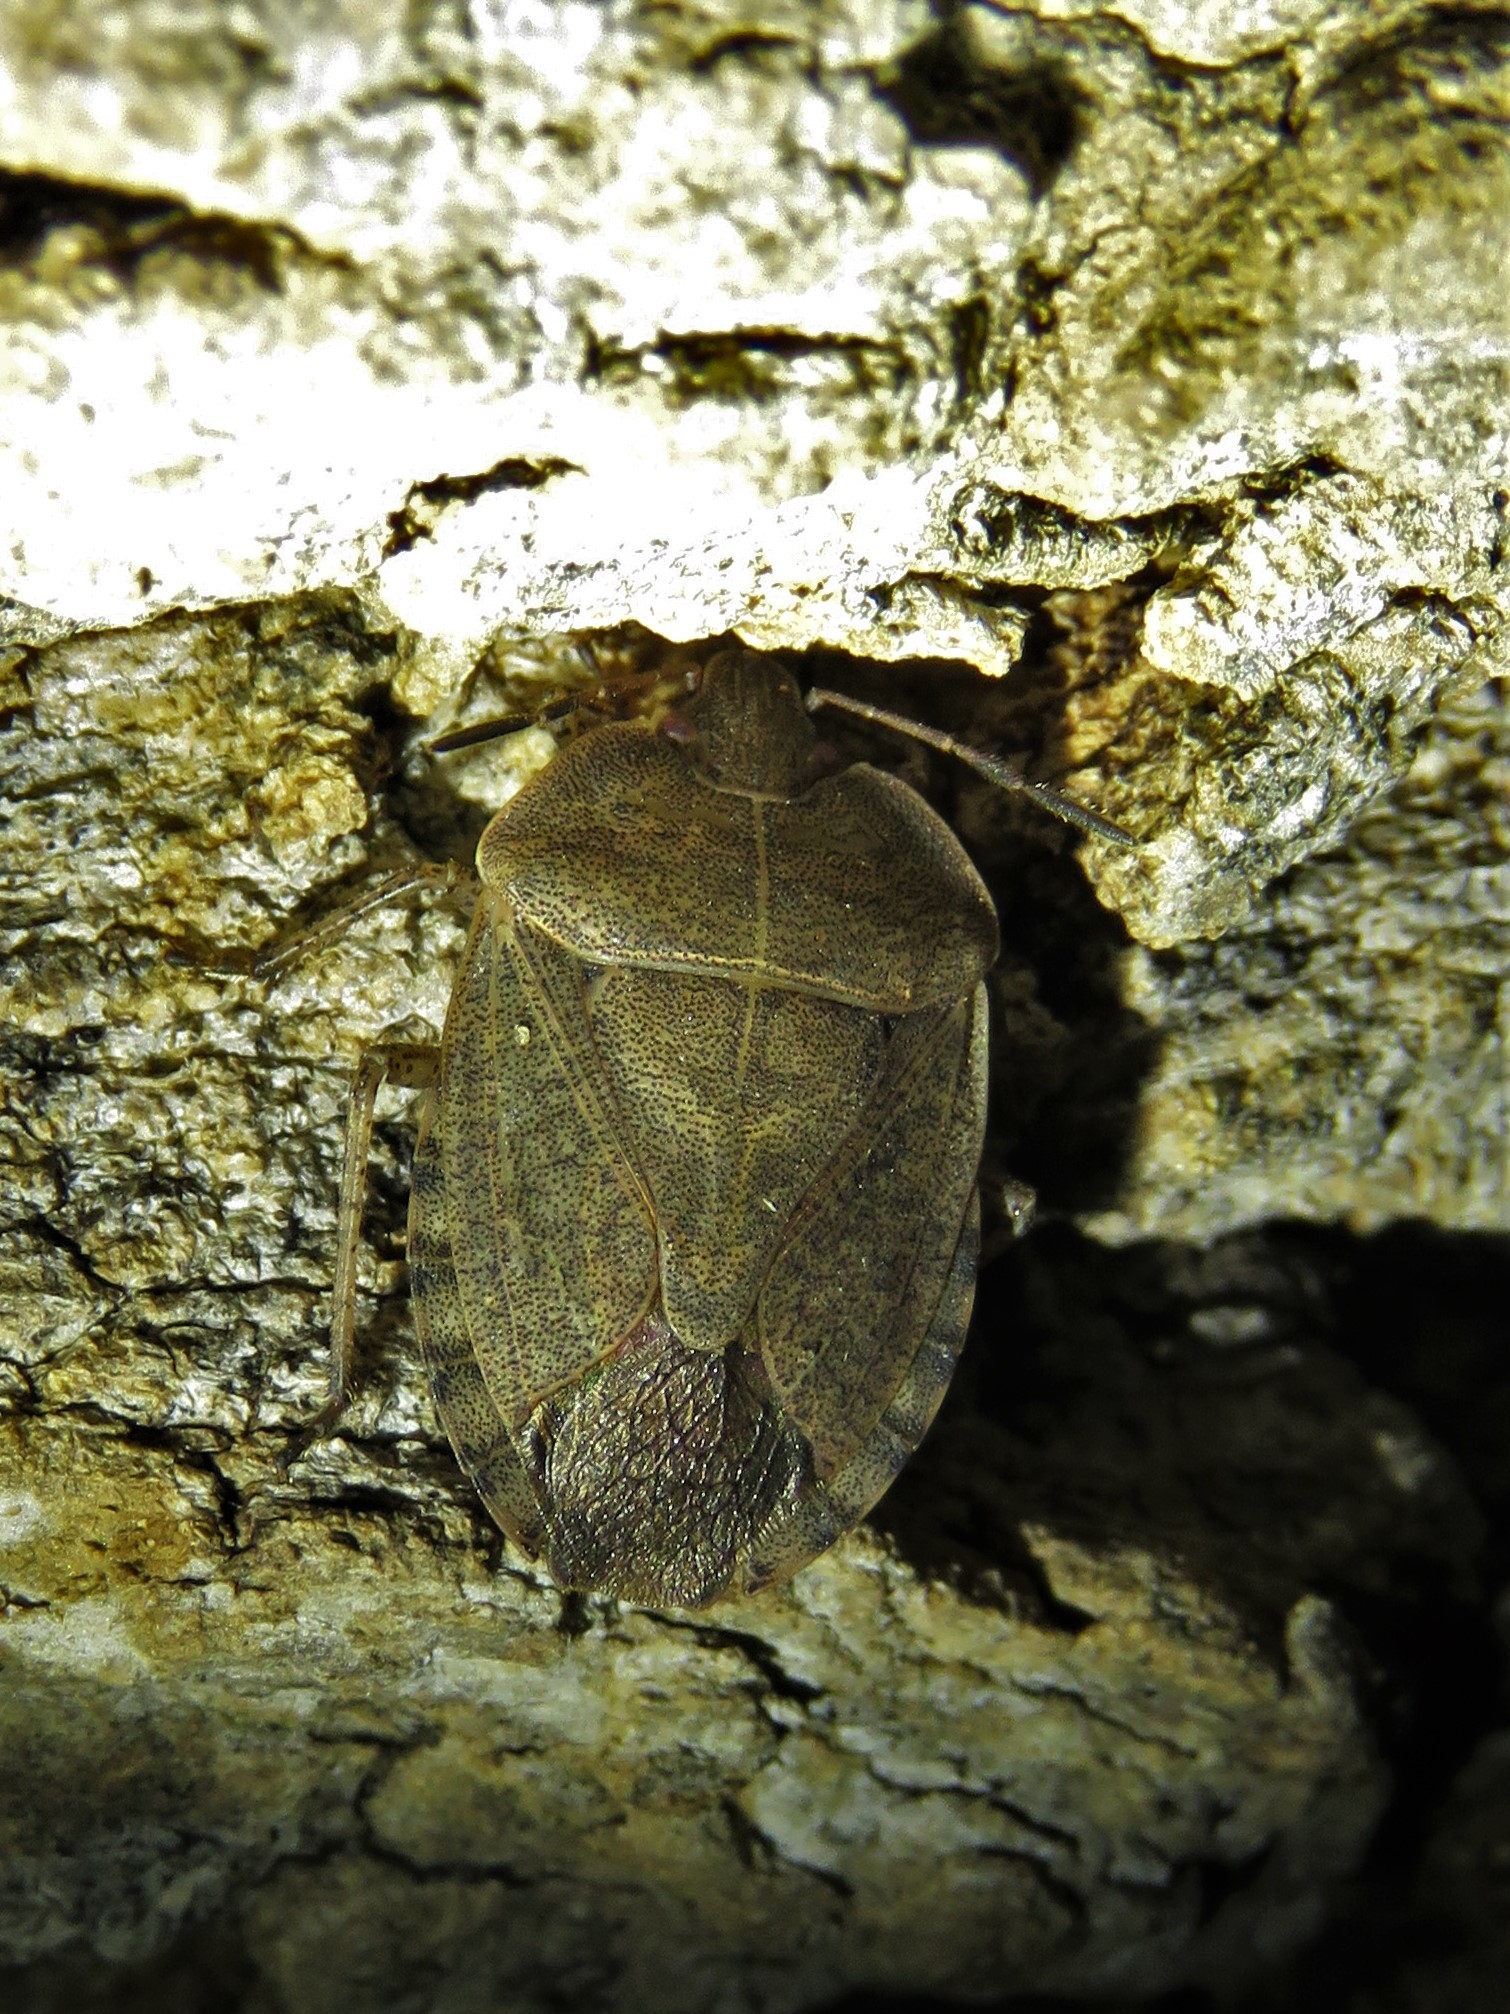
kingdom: Animalia
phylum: Arthropoda
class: Insecta
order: Hemiptera
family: Pentatomidae
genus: Menecles
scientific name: Menecles insertus
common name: Elf shoe stink bug
